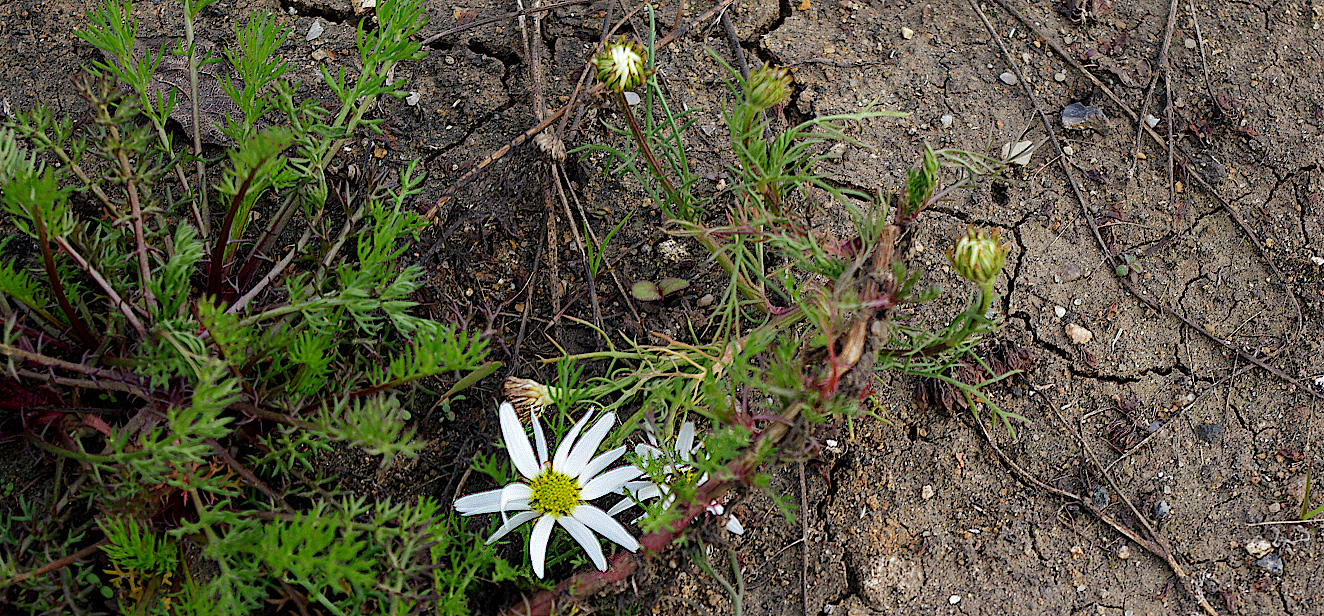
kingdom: Plantae
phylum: Tracheophyta
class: Magnoliopsida
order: Asterales
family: Asteraceae
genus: Tripleurospermum
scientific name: Tripleurospermum inodorum
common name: Scentless mayweed
